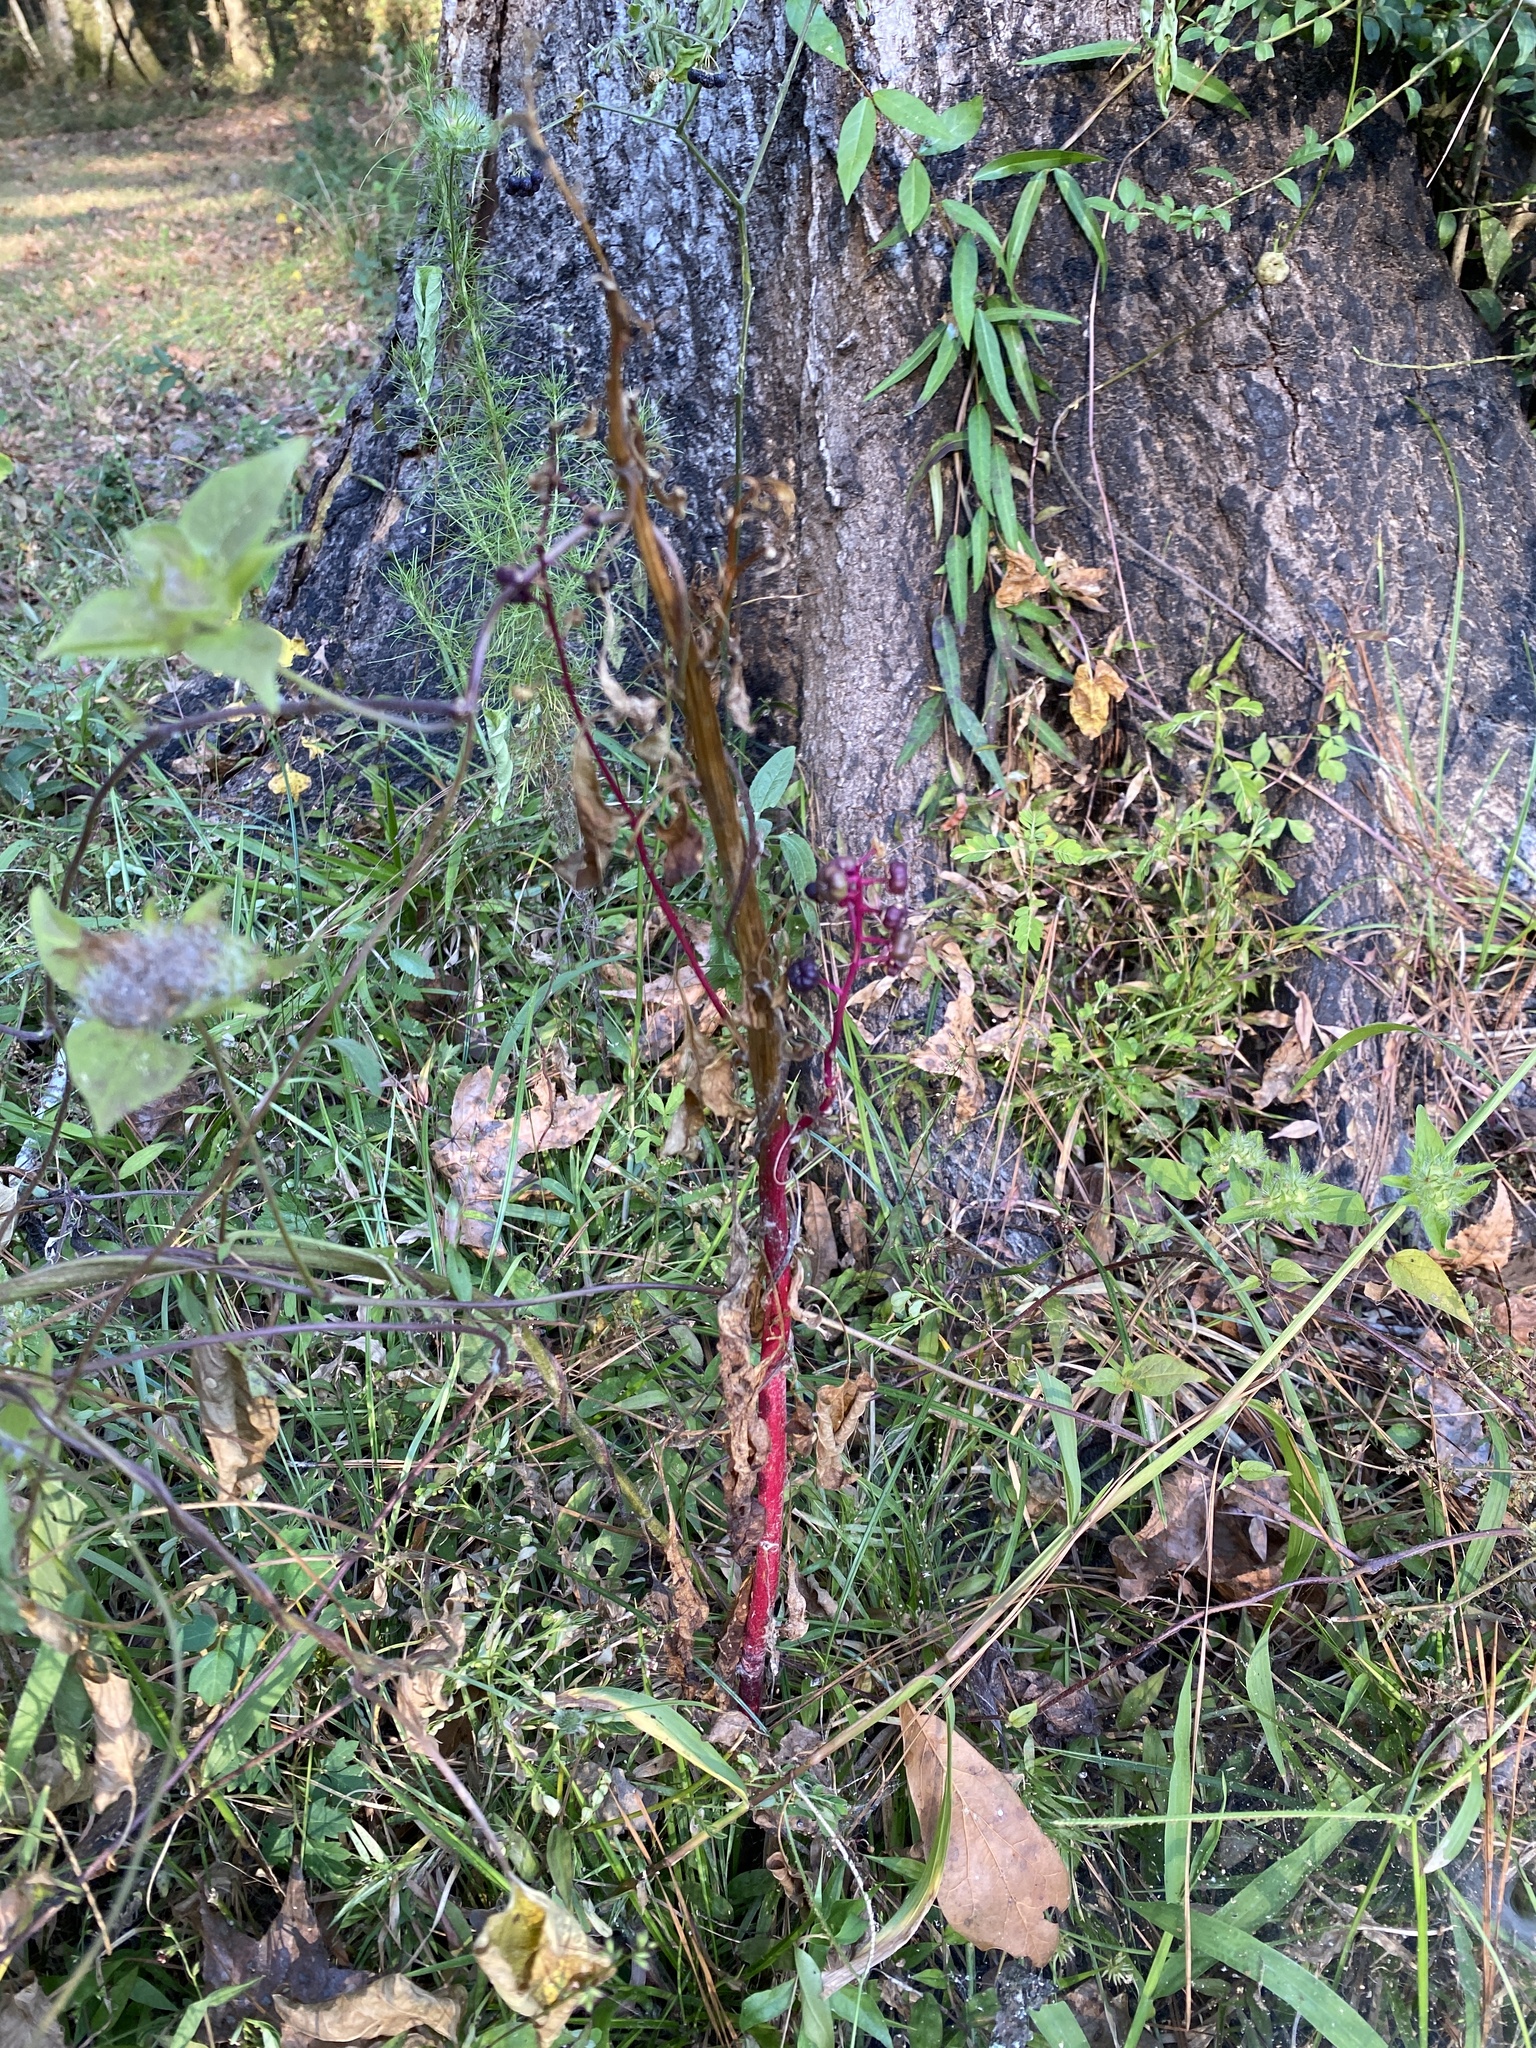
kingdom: Plantae
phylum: Tracheophyta
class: Magnoliopsida
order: Caryophyllales
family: Phytolaccaceae
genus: Phytolacca
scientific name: Phytolacca americana
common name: American pokeweed
